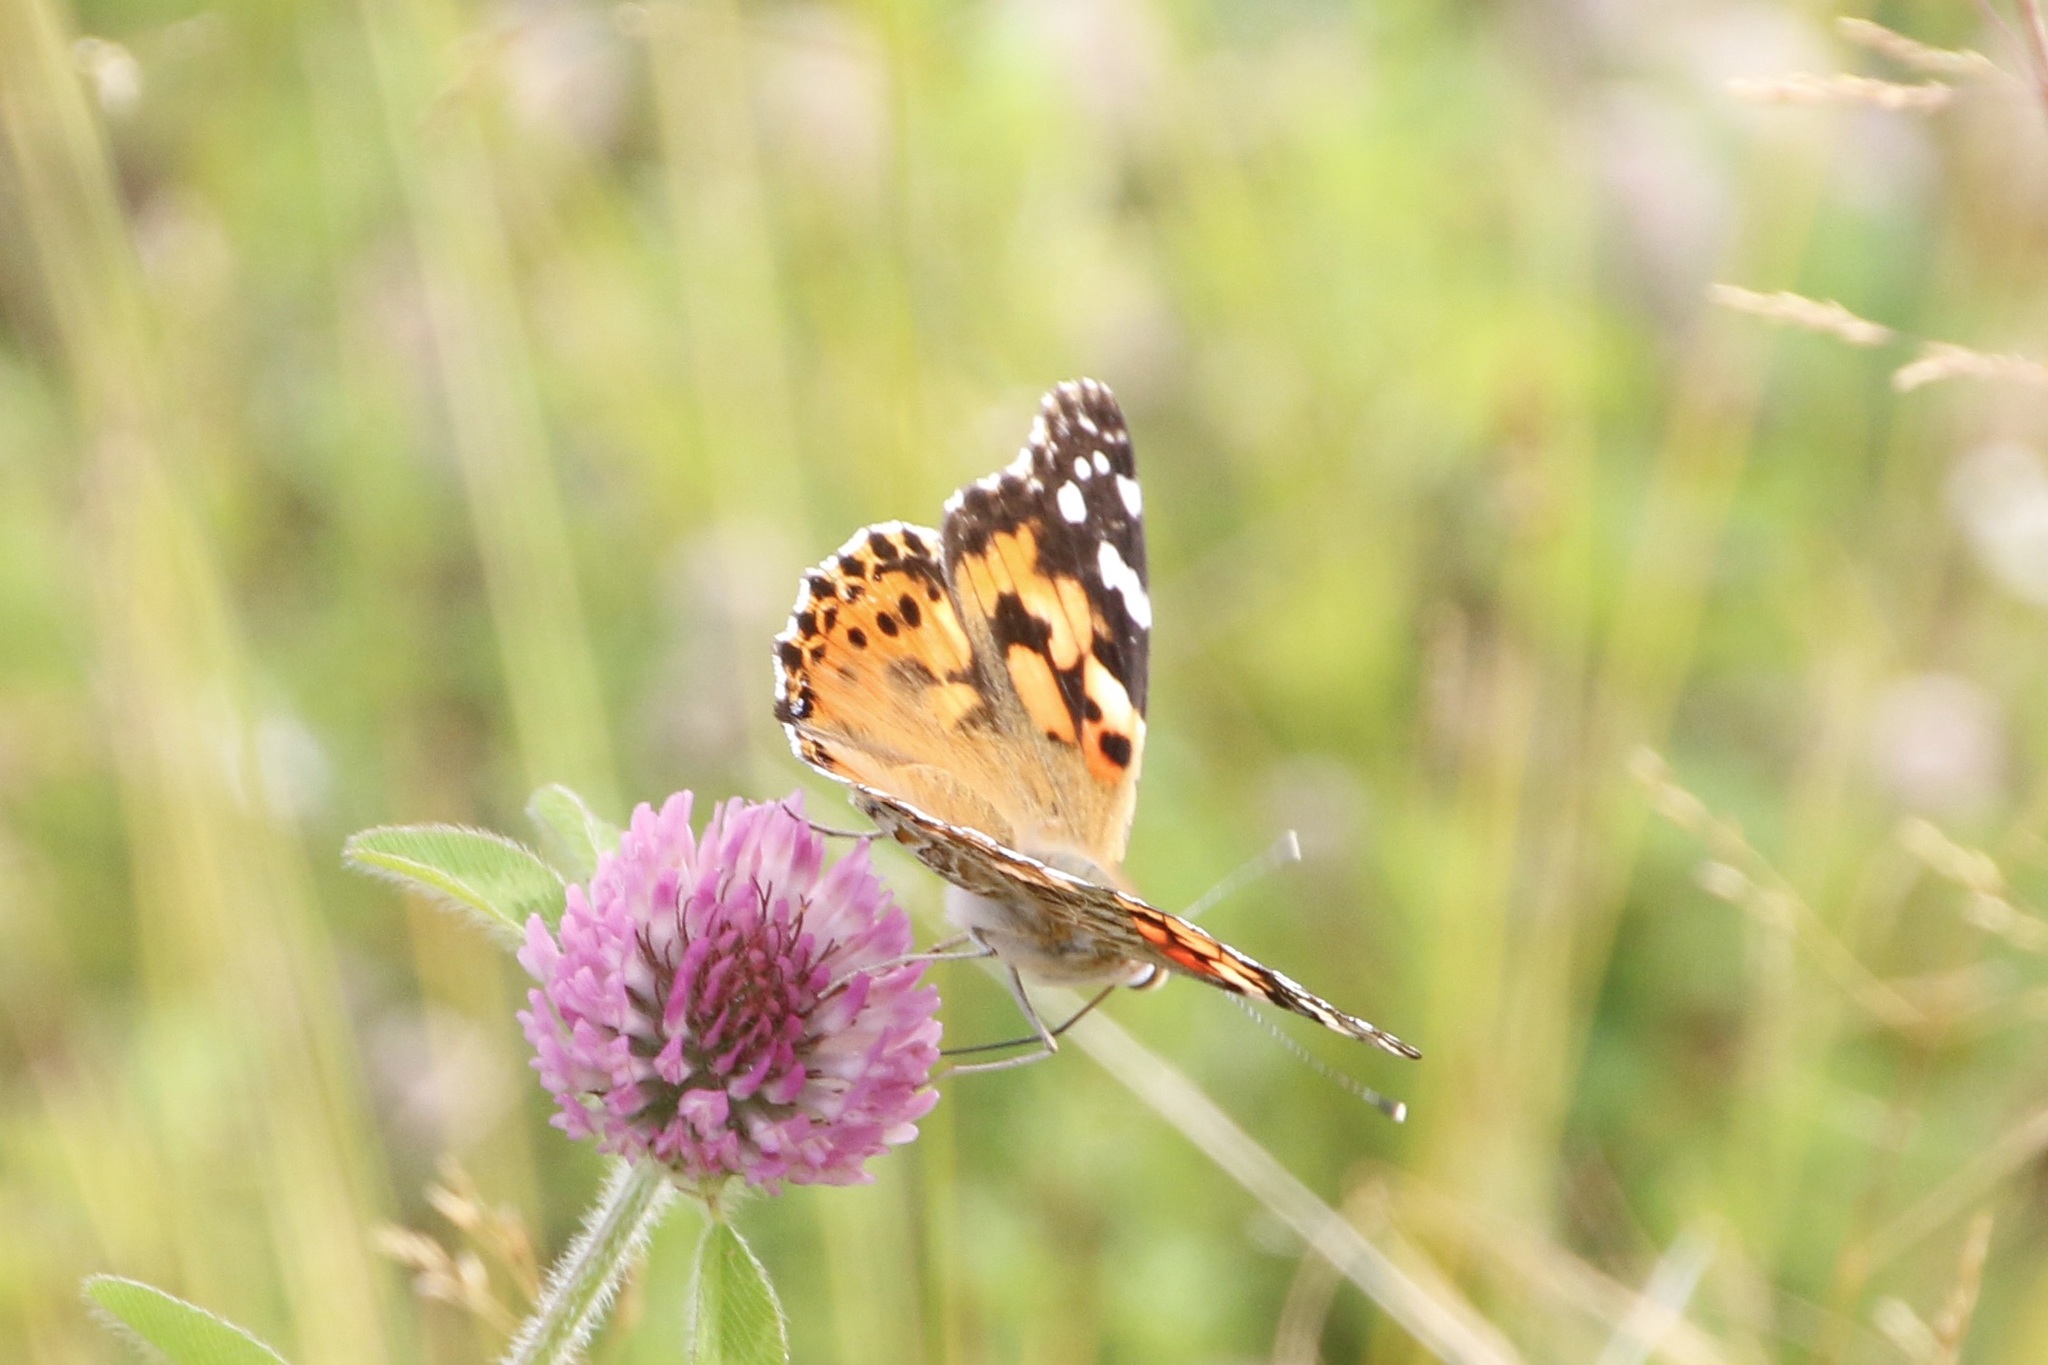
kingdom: Animalia
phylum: Arthropoda
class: Insecta
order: Lepidoptera
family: Nymphalidae
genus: Vanessa
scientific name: Vanessa cardui
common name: Painted lady
